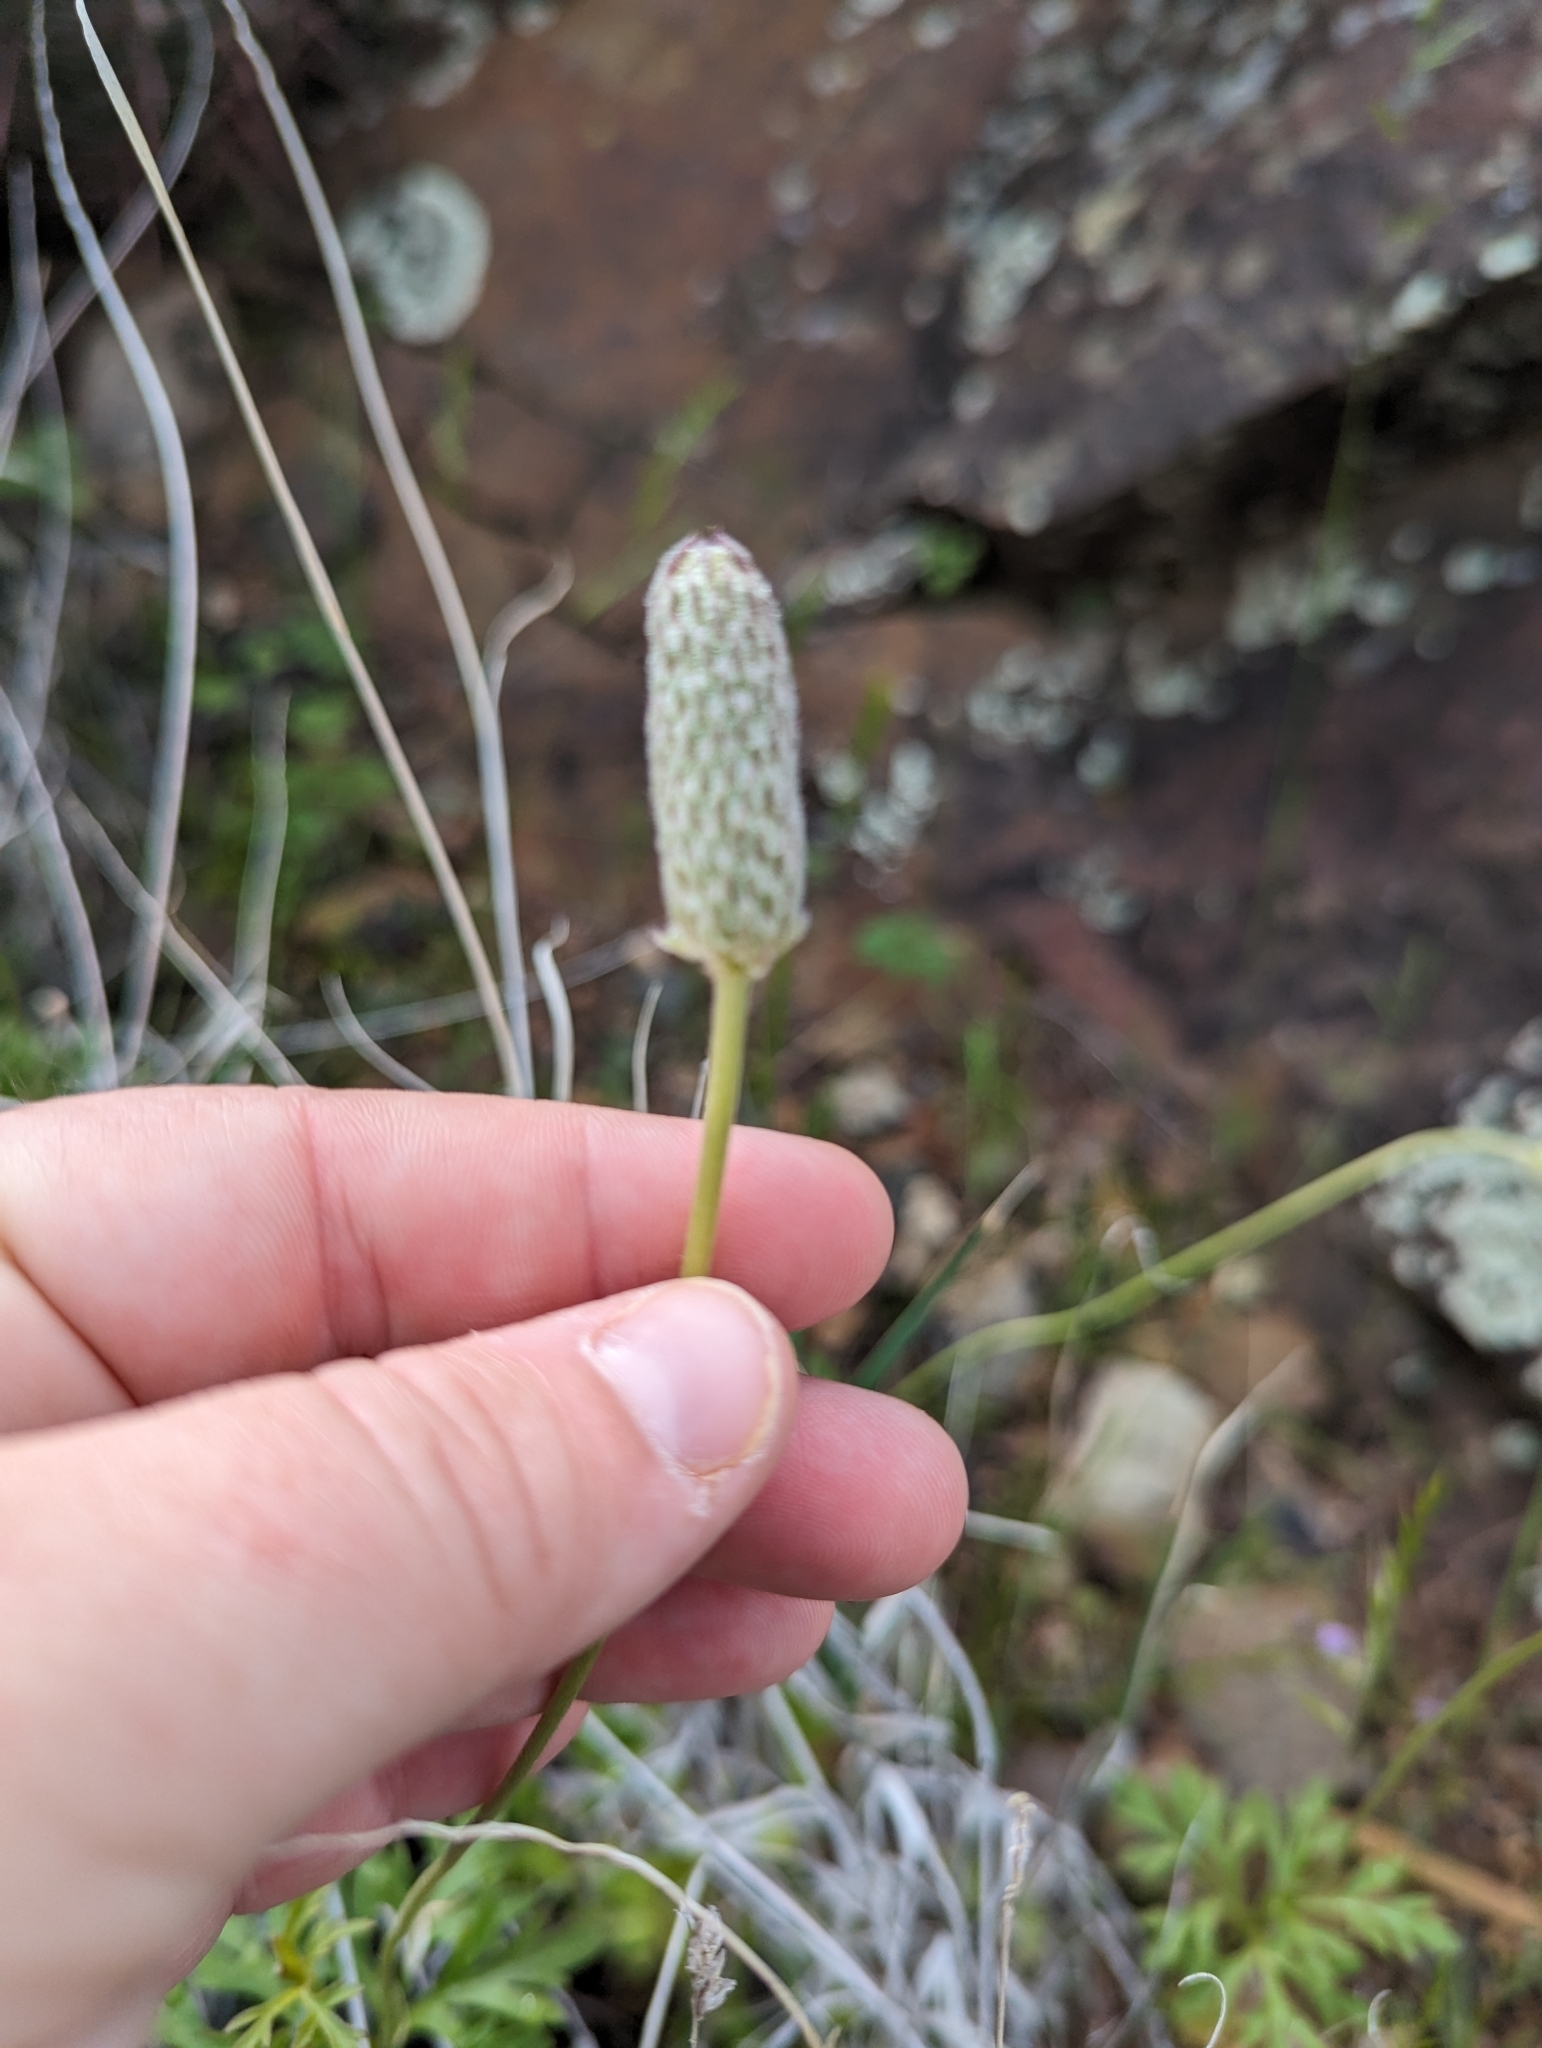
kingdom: Plantae
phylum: Tracheophyta
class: Magnoliopsida
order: Ranunculales
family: Ranunculaceae
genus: Anemone
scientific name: Anemone tuberosa
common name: Desert anemone
